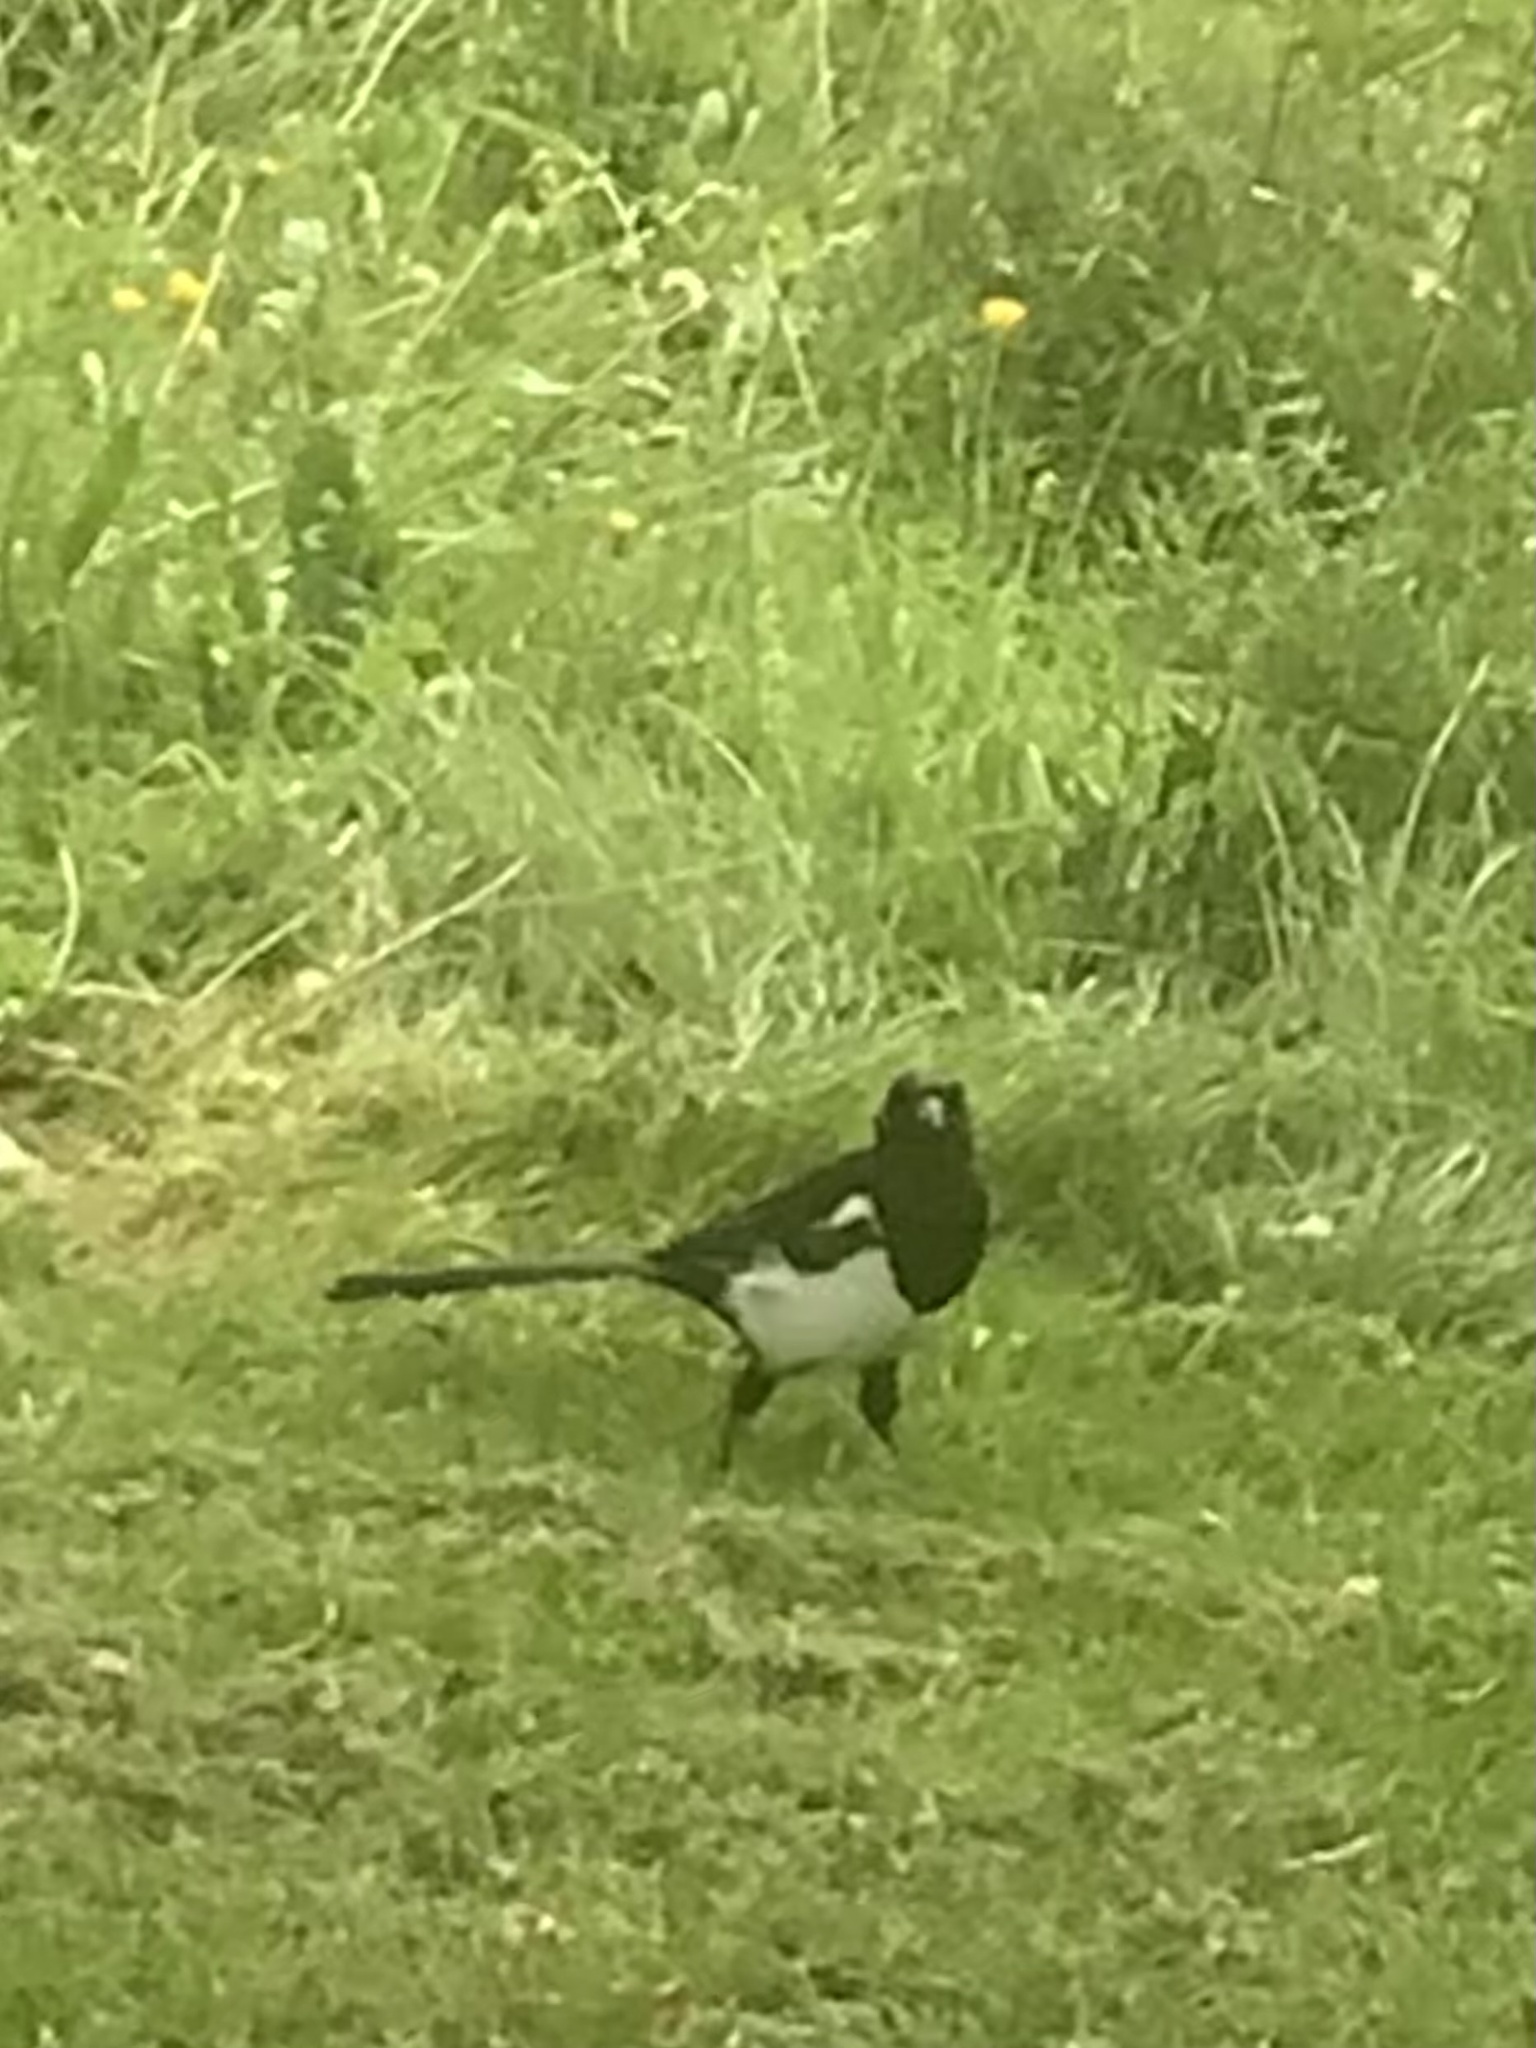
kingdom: Animalia
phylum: Chordata
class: Aves
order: Passeriformes
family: Corvidae
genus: Pica
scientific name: Pica pica
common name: Eurasian magpie
